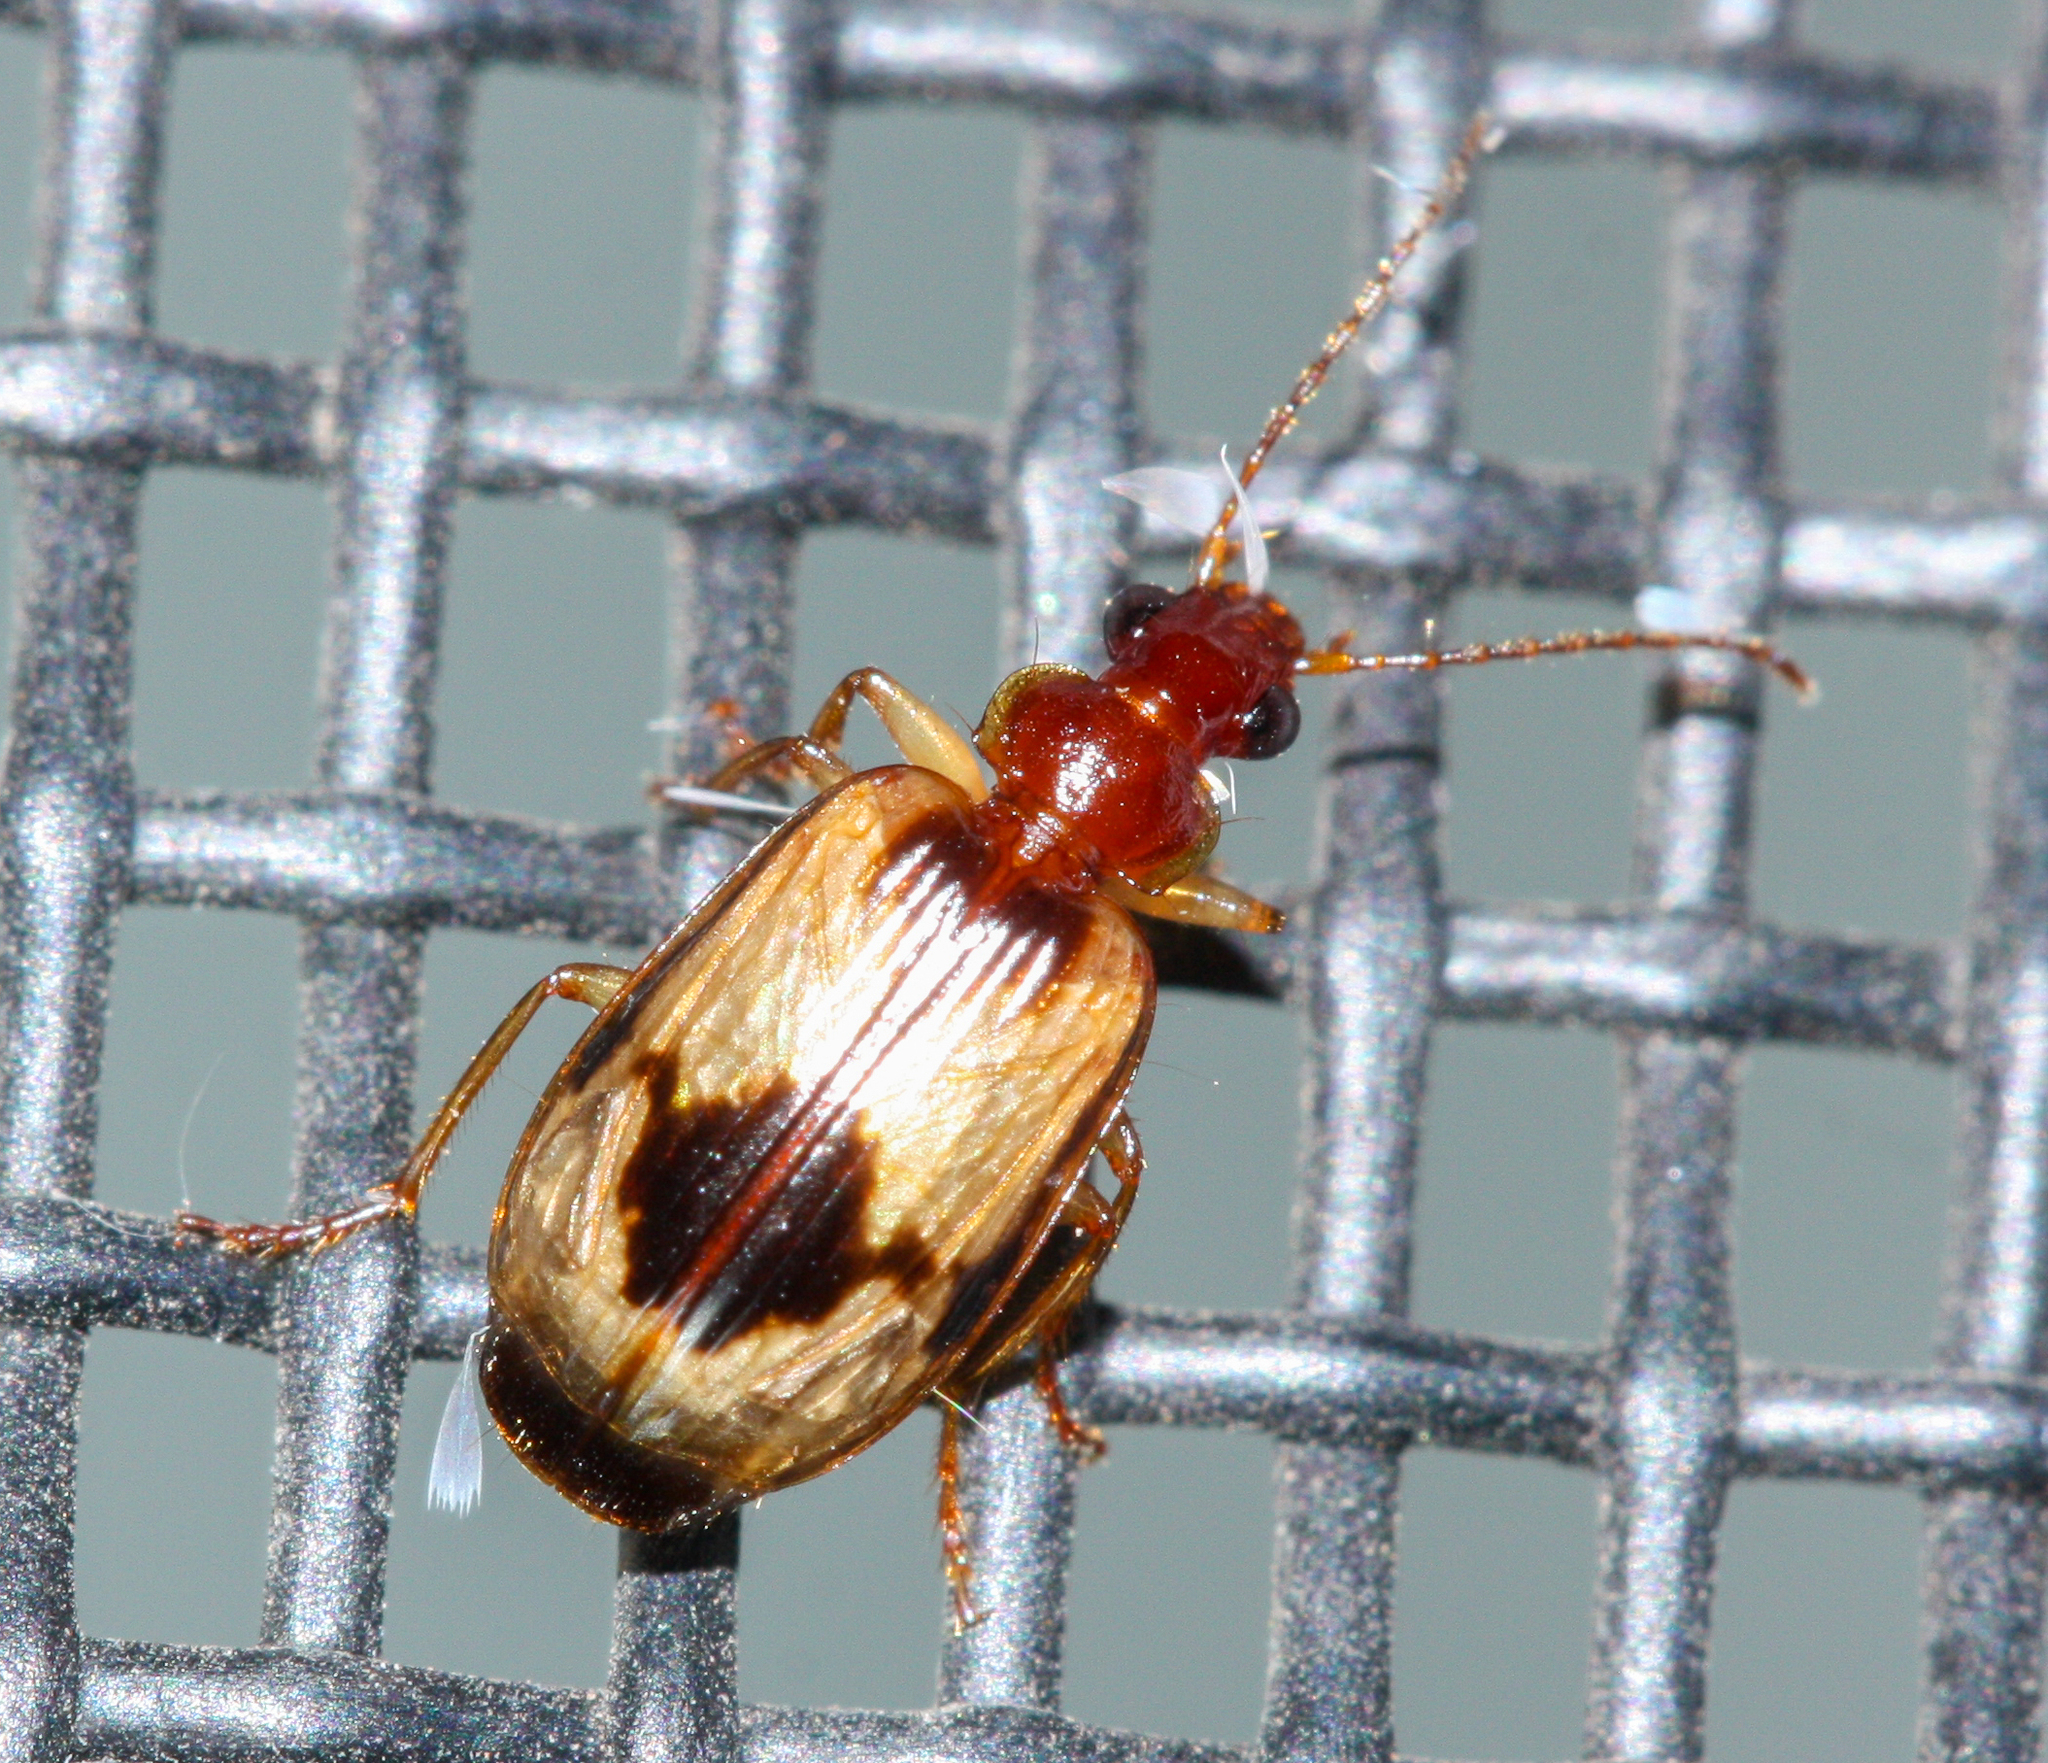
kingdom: Animalia
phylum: Arthropoda
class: Insecta
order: Coleoptera
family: Carabidae
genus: Lebia
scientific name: Lebia abdita
